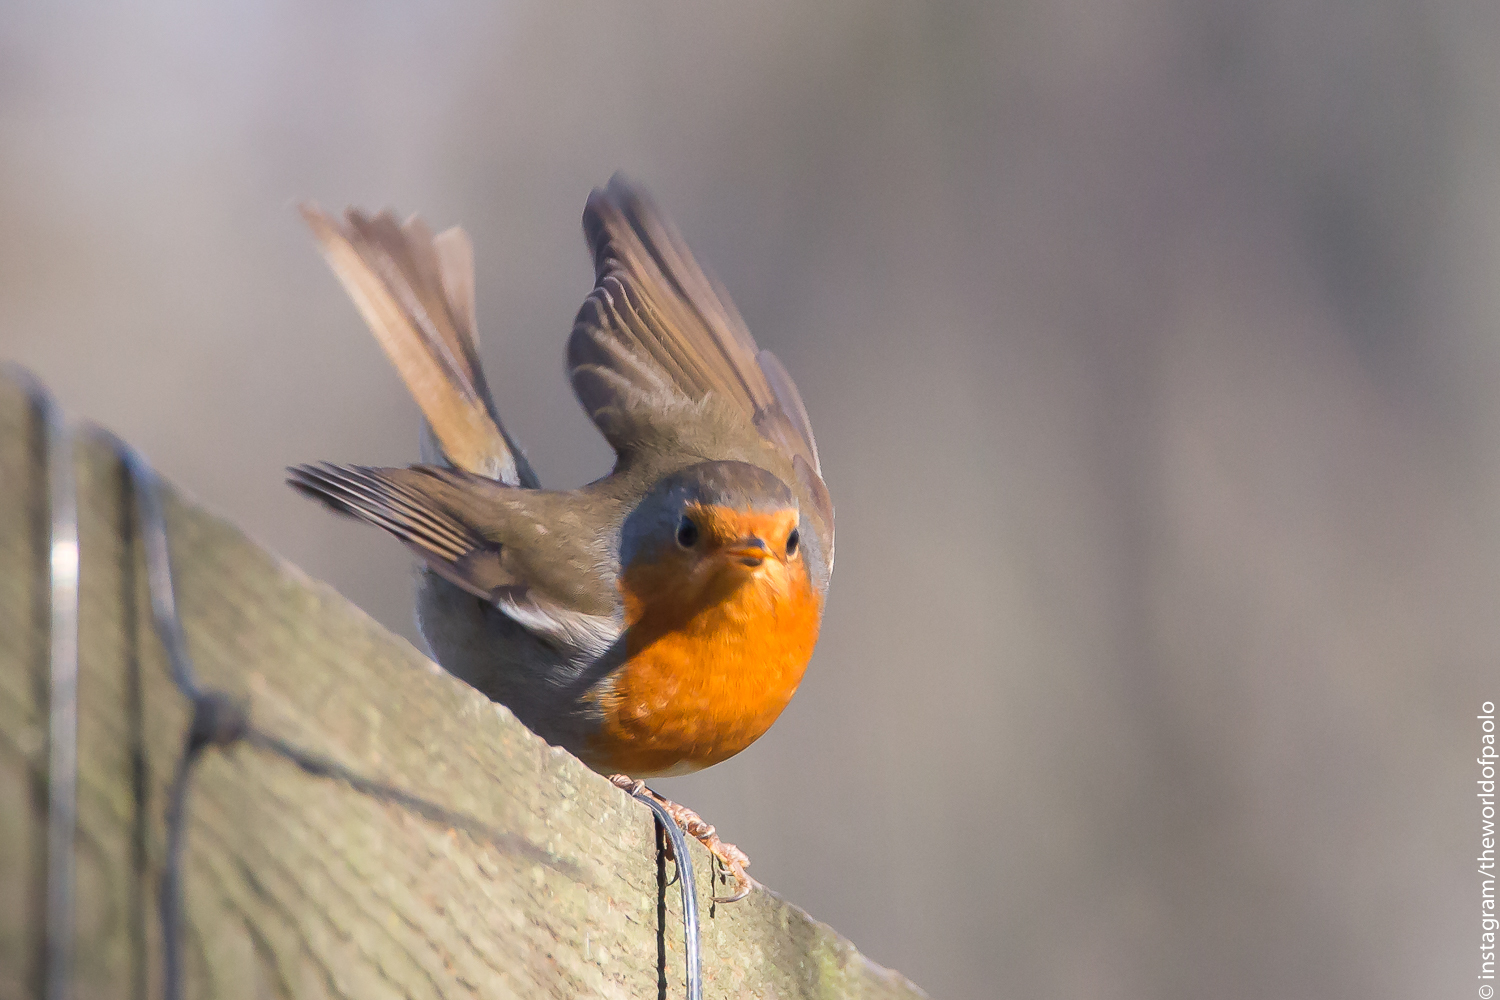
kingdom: Animalia
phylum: Chordata
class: Aves
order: Passeriformes
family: Muscicapidae
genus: Erithacus
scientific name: Erithacus rubecula
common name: European robin
